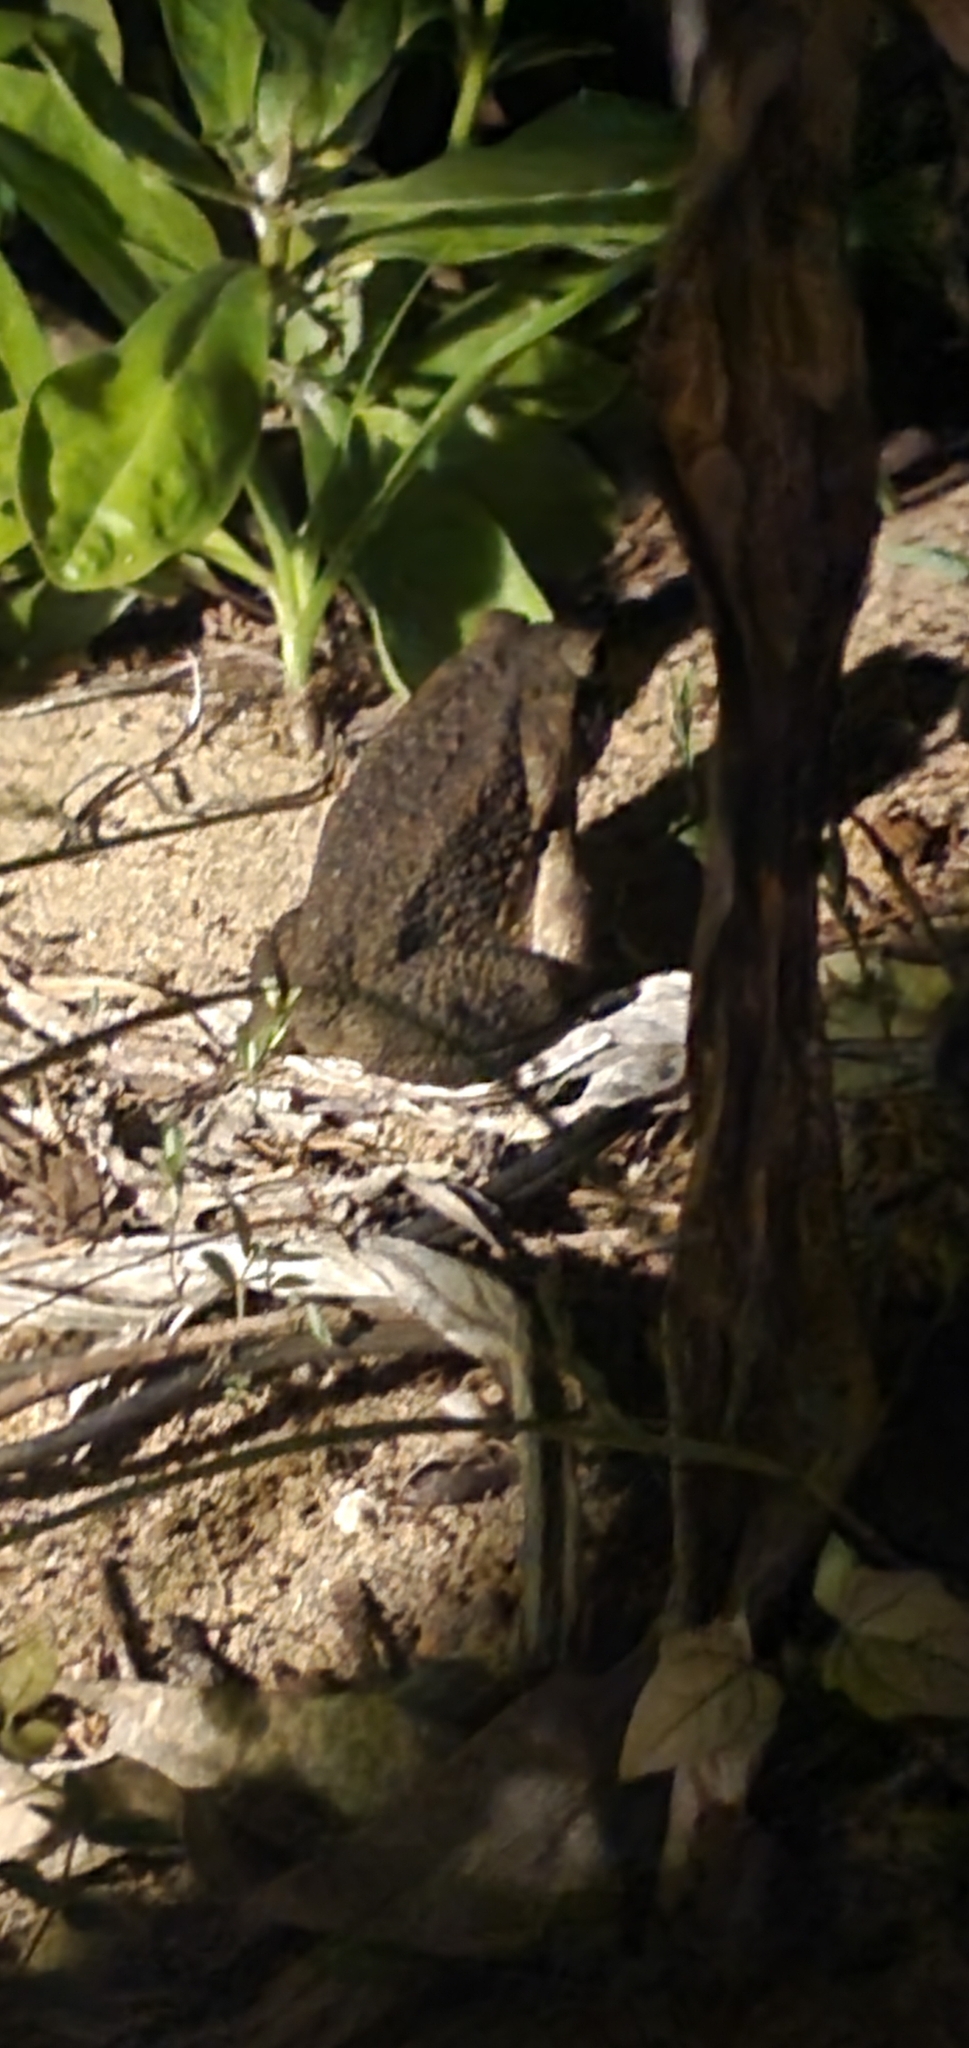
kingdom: Animalia
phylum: Chordata
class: Amphibia
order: Anura
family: Bufonidae
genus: Rhinella
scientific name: Rhinella marina
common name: Cane toad
